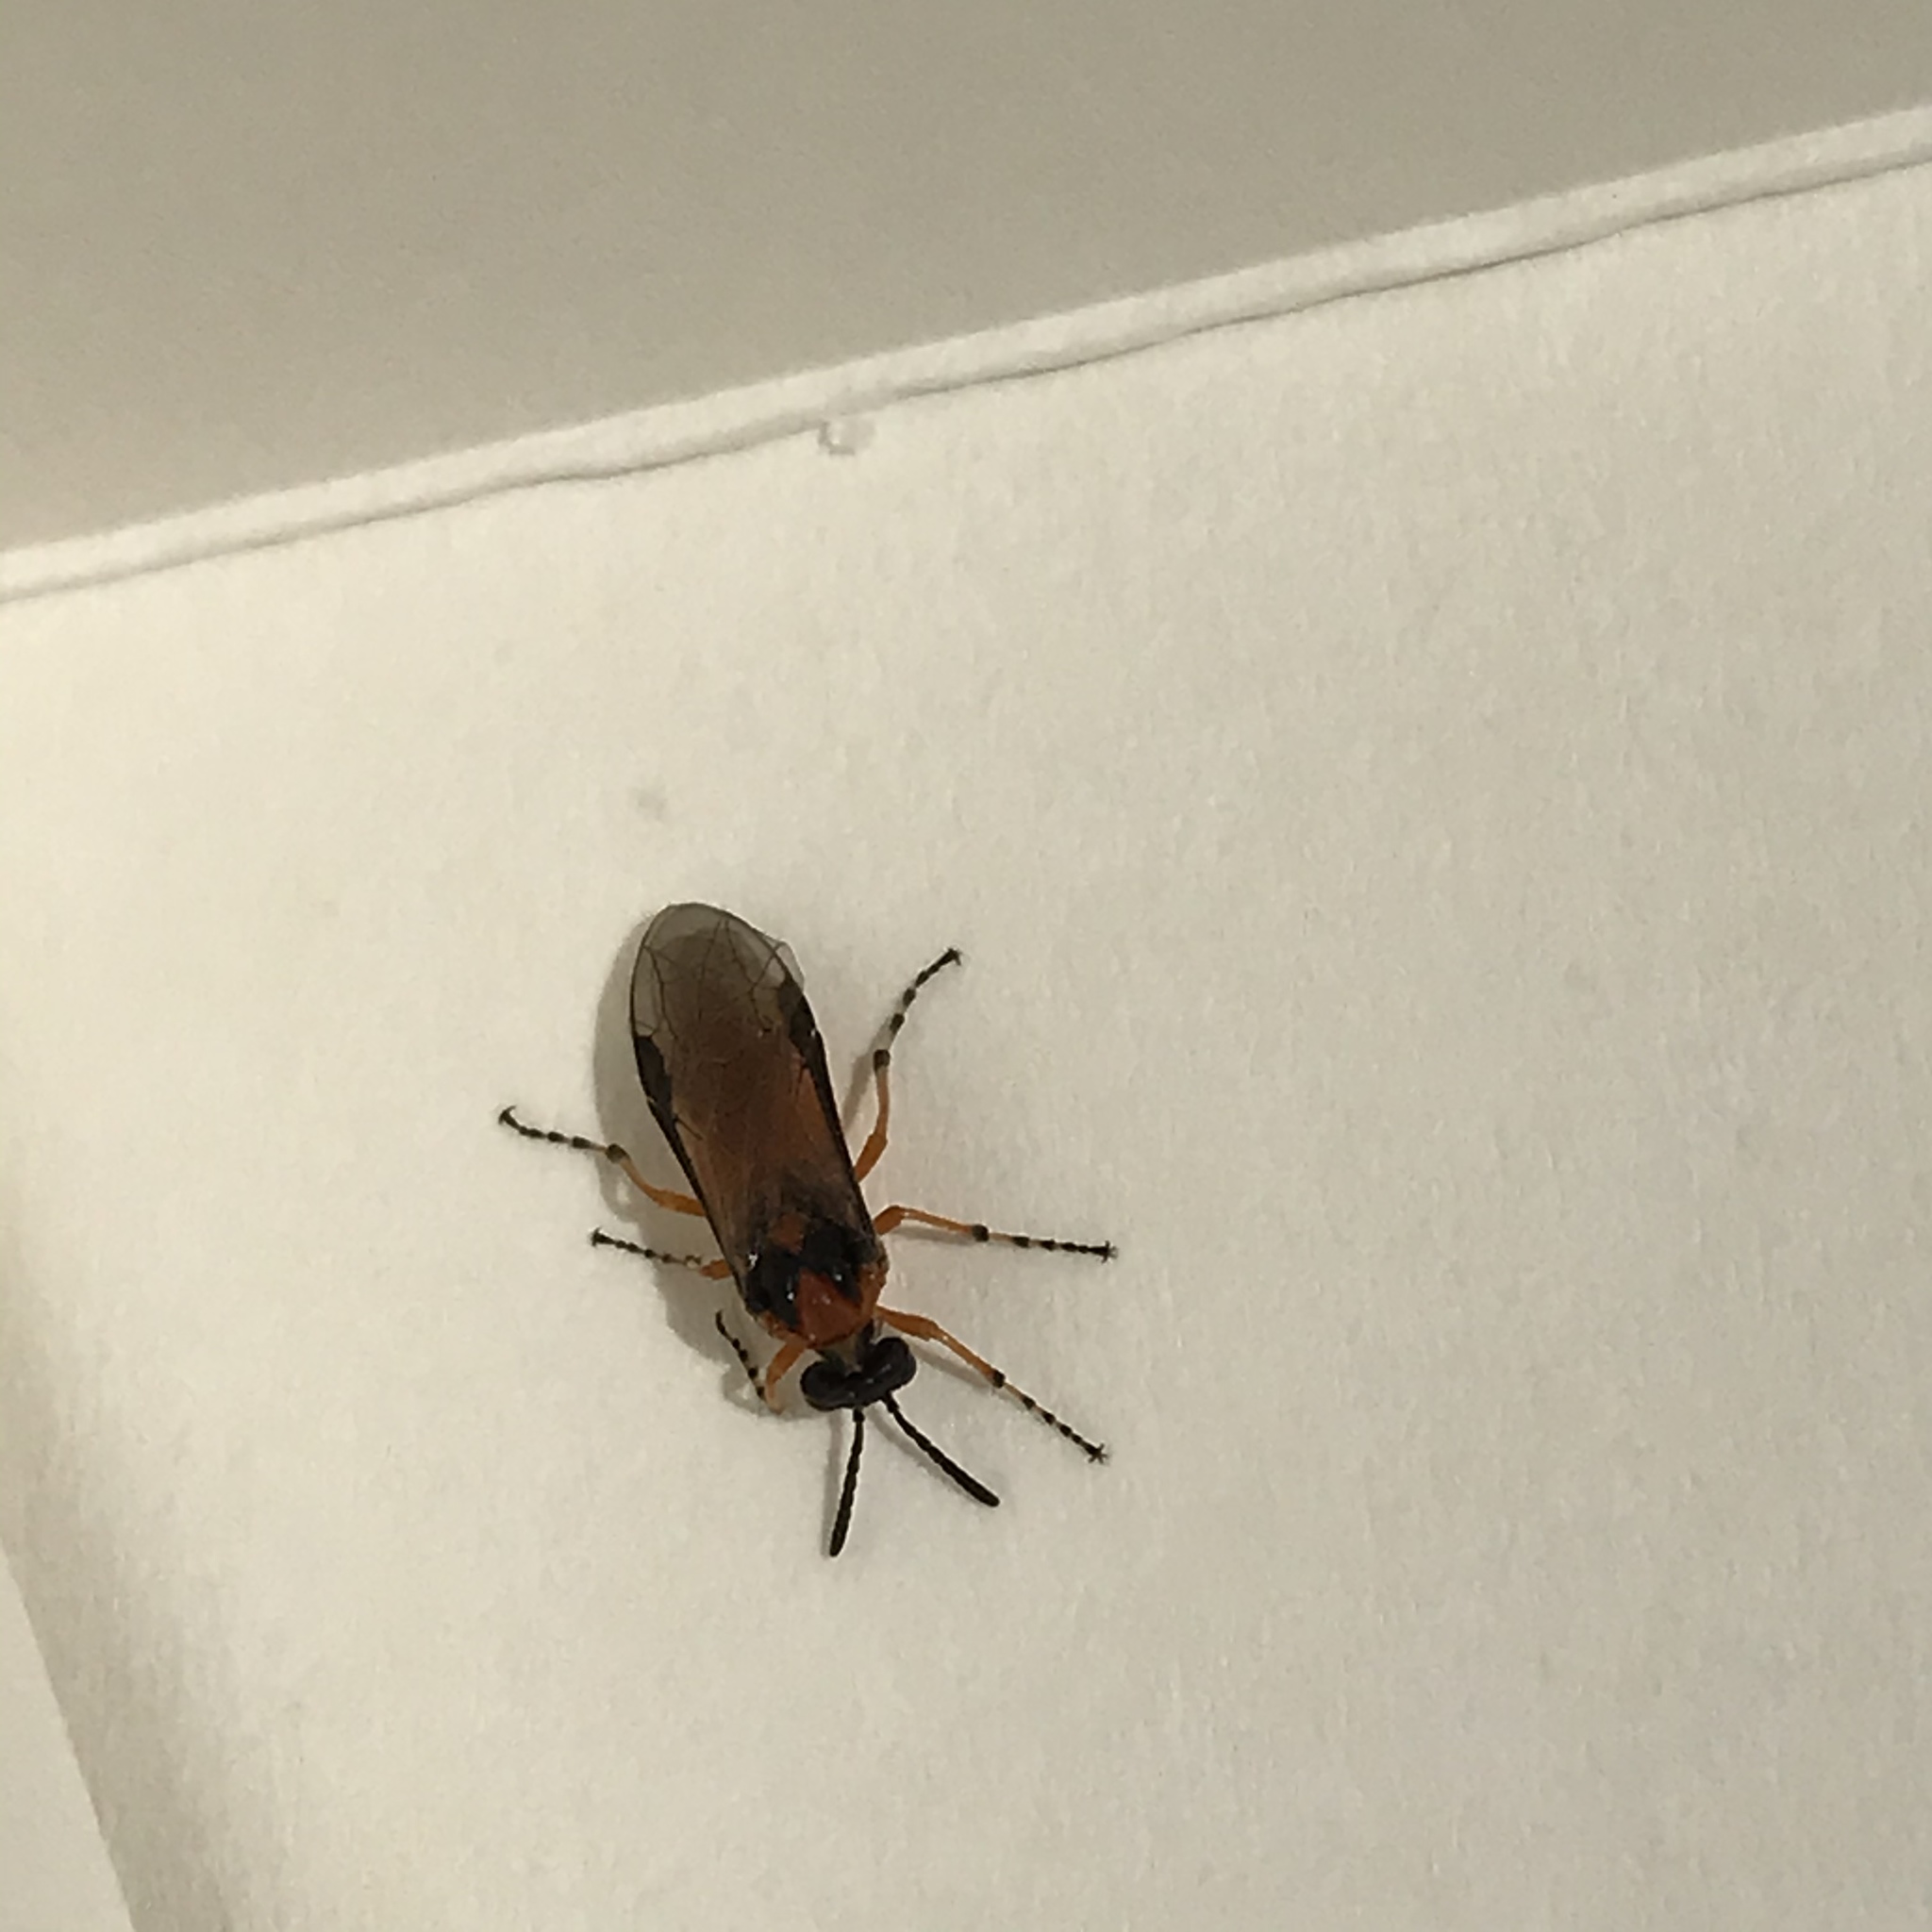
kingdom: Animalia
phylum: Arthropoda
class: Insecta
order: Hymenoptera
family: Tenthredinidae
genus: Athalia
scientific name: Athalia rosae
